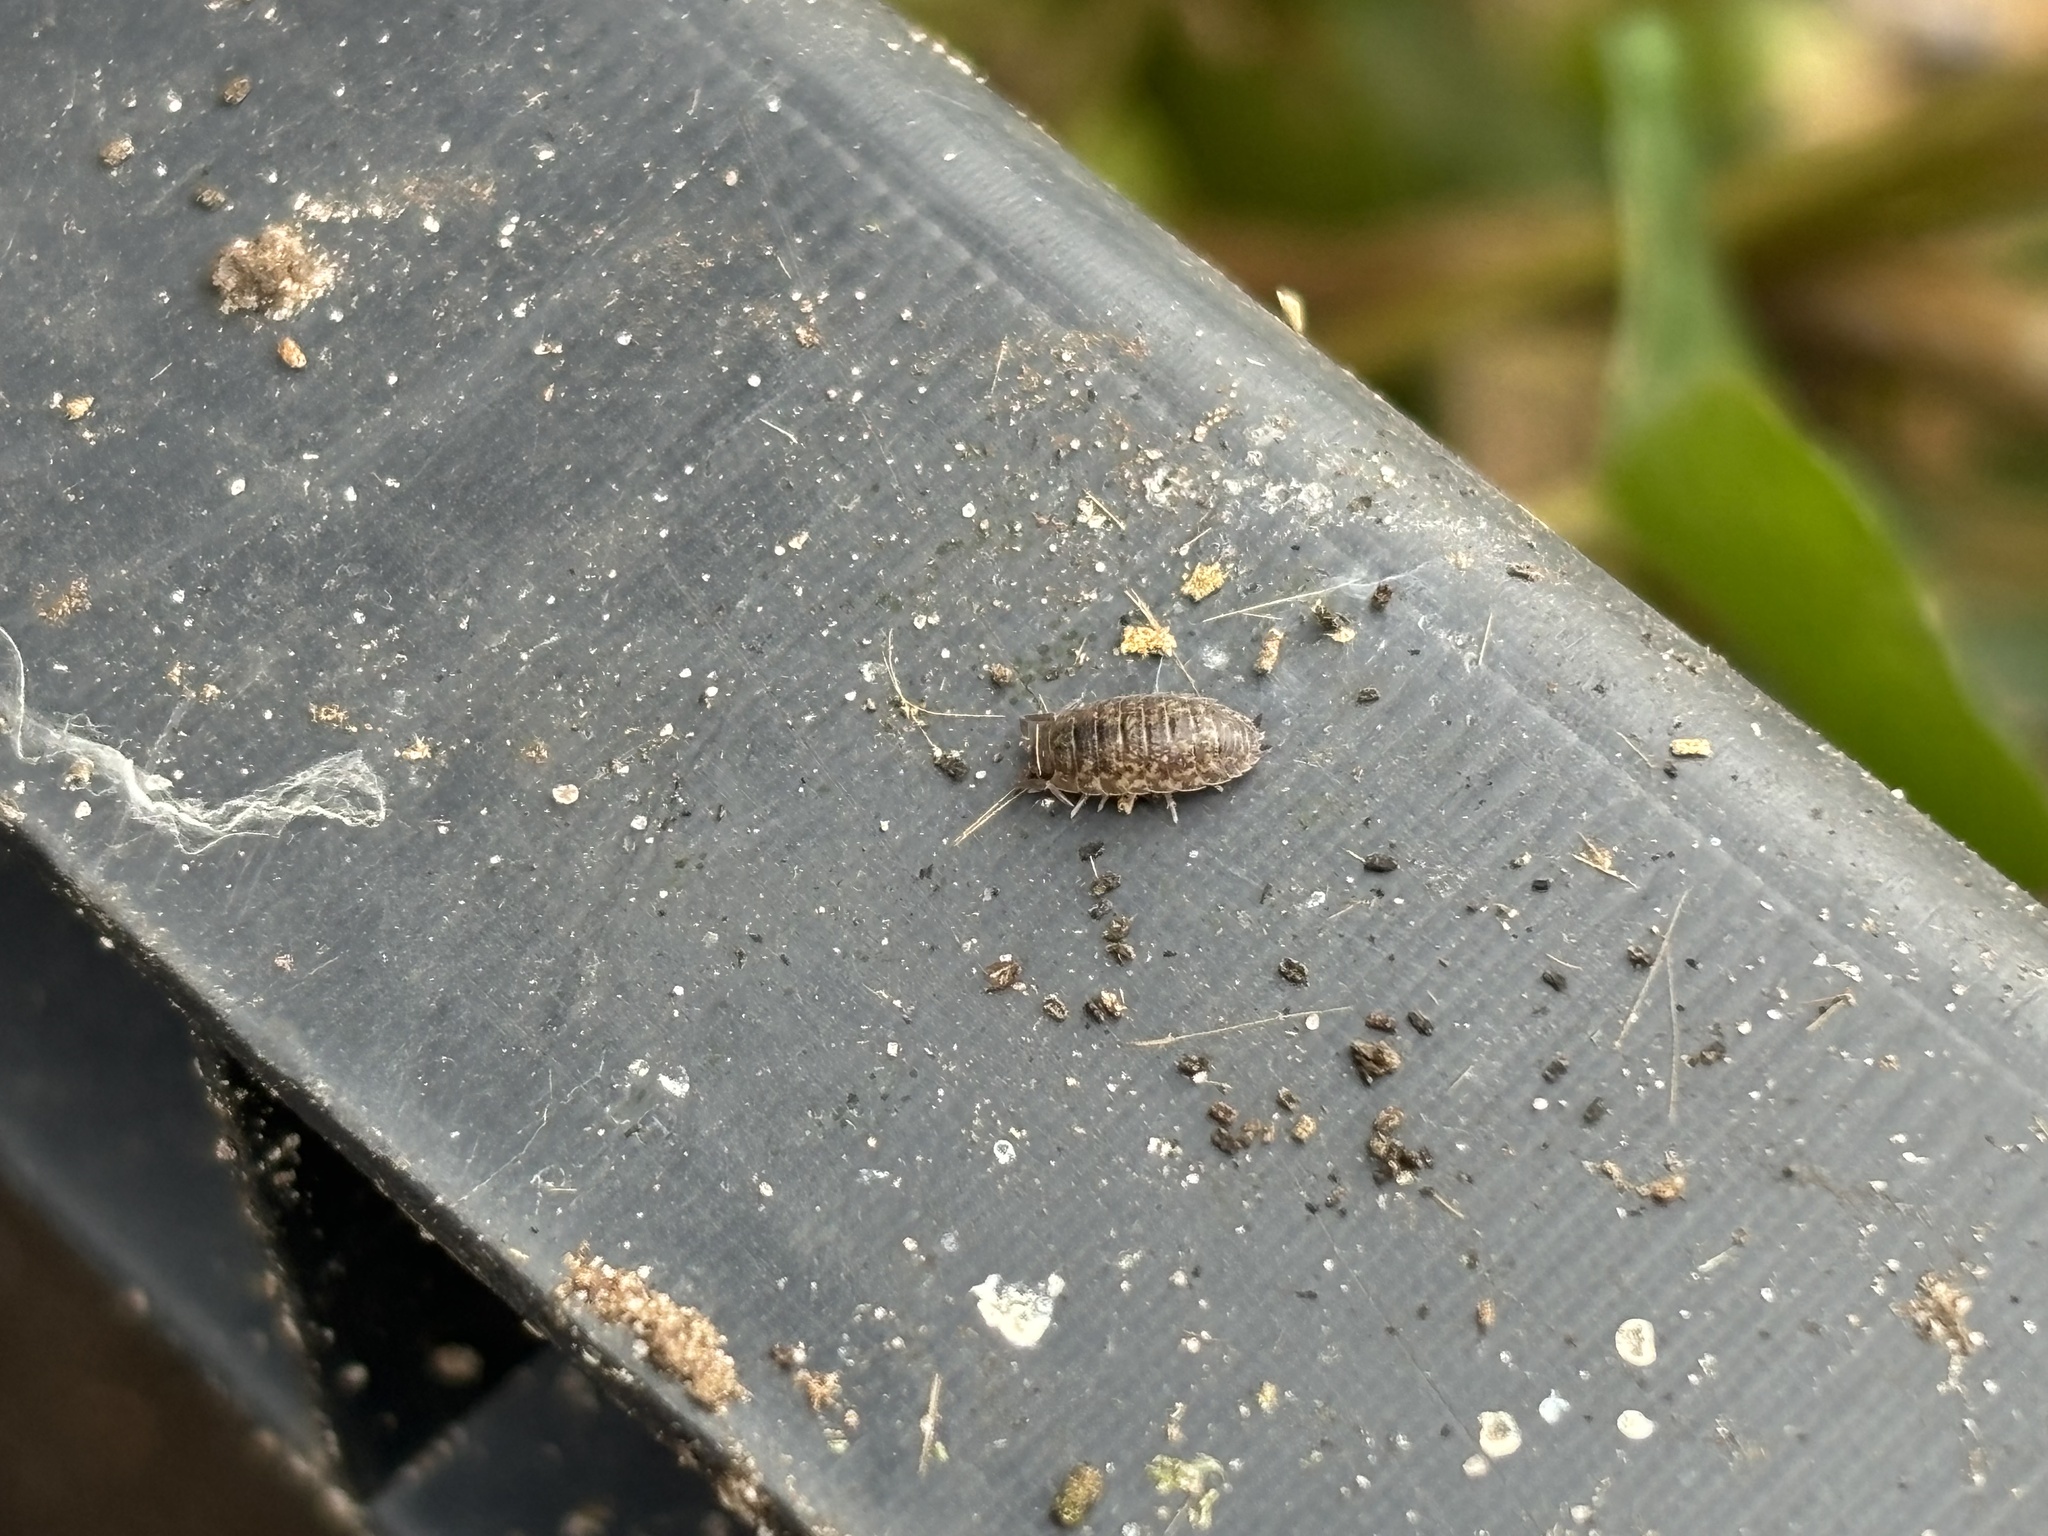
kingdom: Animalia
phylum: Arthropoda
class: Malacostraca
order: Isopoda
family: Porcellionidae
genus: Porcellio
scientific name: Porcellio scaber
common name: Common rough woodlouse
